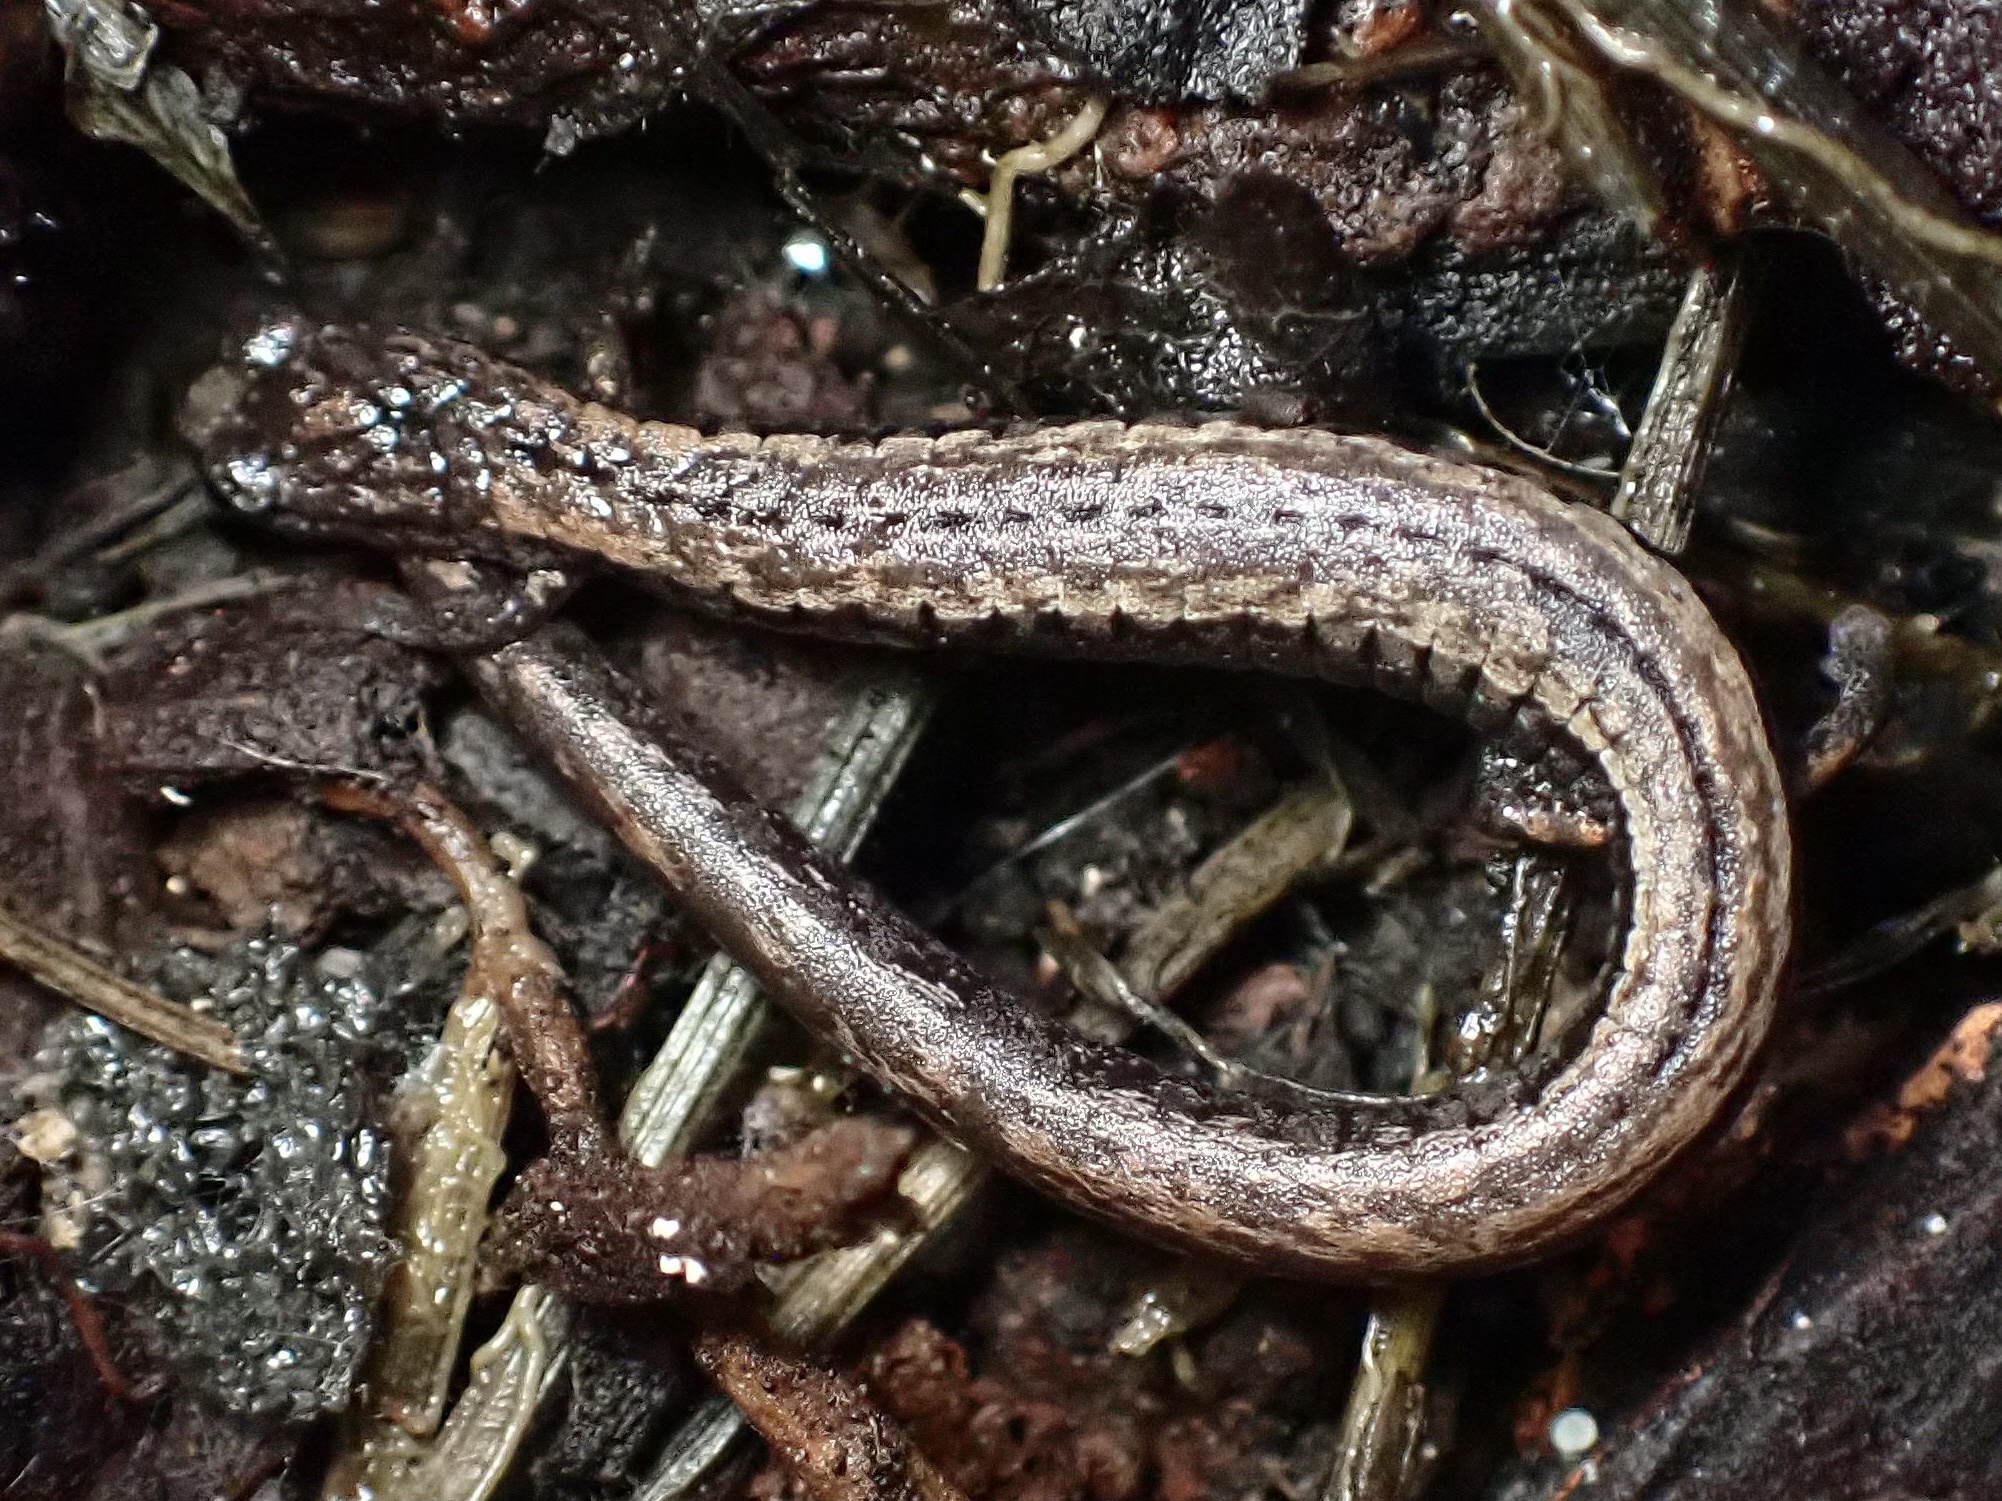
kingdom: Animalia
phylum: Chordata
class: Amphibia
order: Caudata
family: Plethodontidae
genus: Batrachoseps
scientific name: Batrachoseps attenuatus
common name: California slender salamander
